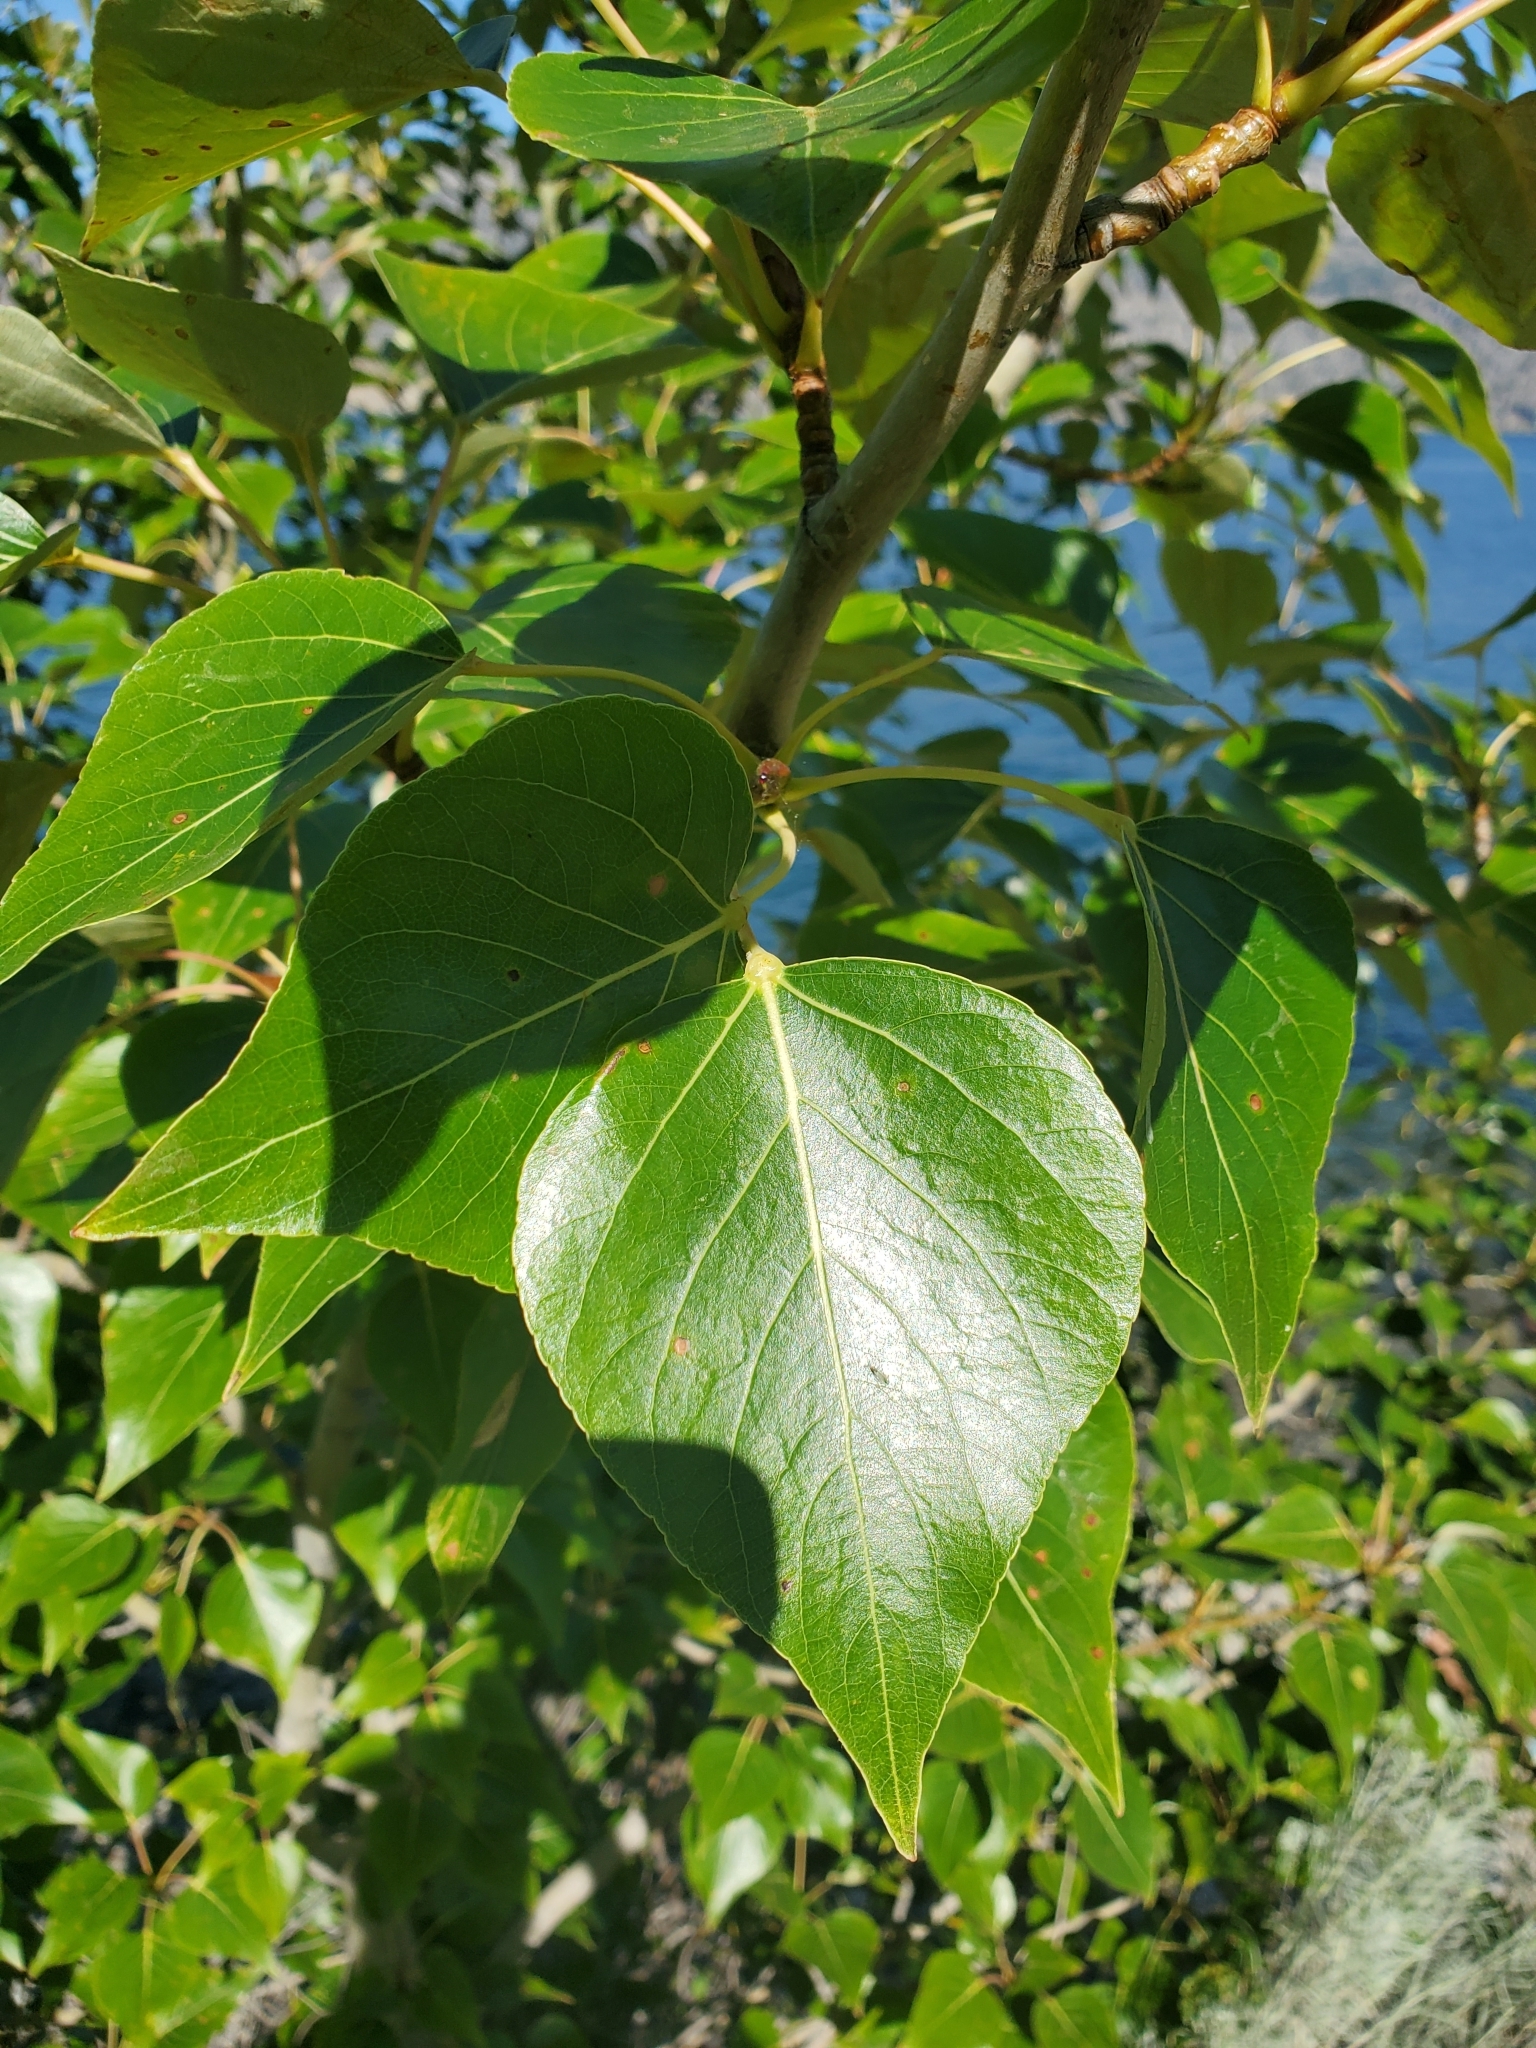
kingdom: Plantae
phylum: Tracheophyta
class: Magnoliopsida
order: Malpighiales
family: Salicaceae
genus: Populus
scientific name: Populus trichocarpa
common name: Black cottonwood
